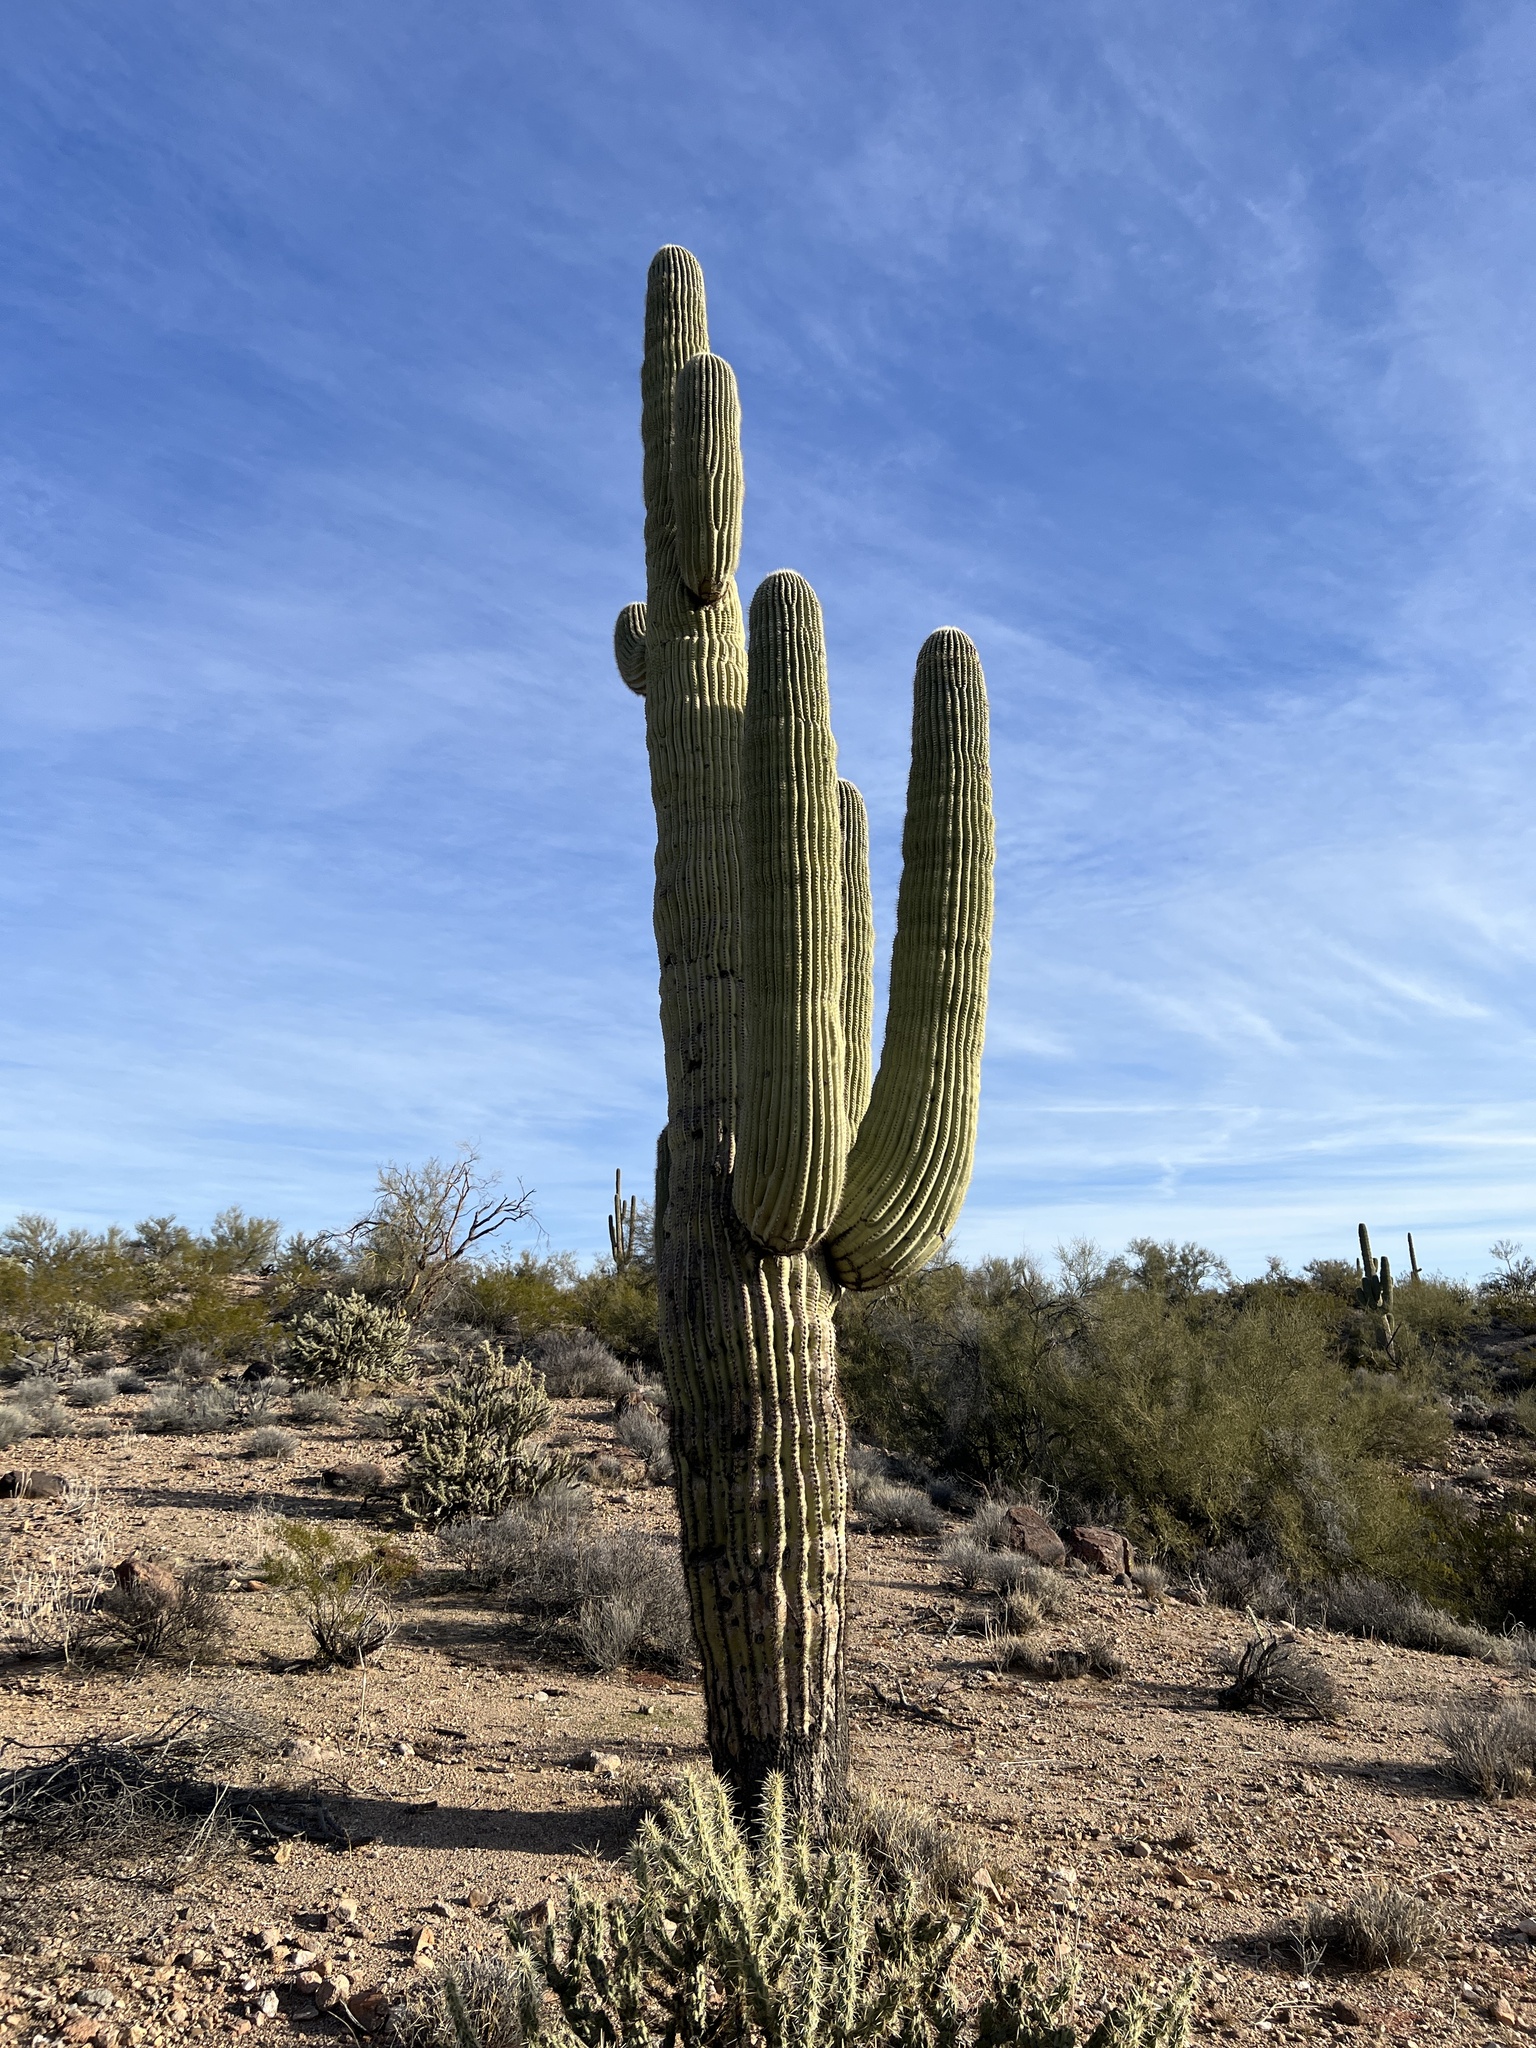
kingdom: Plantae
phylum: Tracheophyta
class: Magnoliopsida
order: Caryophyllales
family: Cactaceae
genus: Carnegiea
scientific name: Carnegiea gigantea
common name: Saguaro
